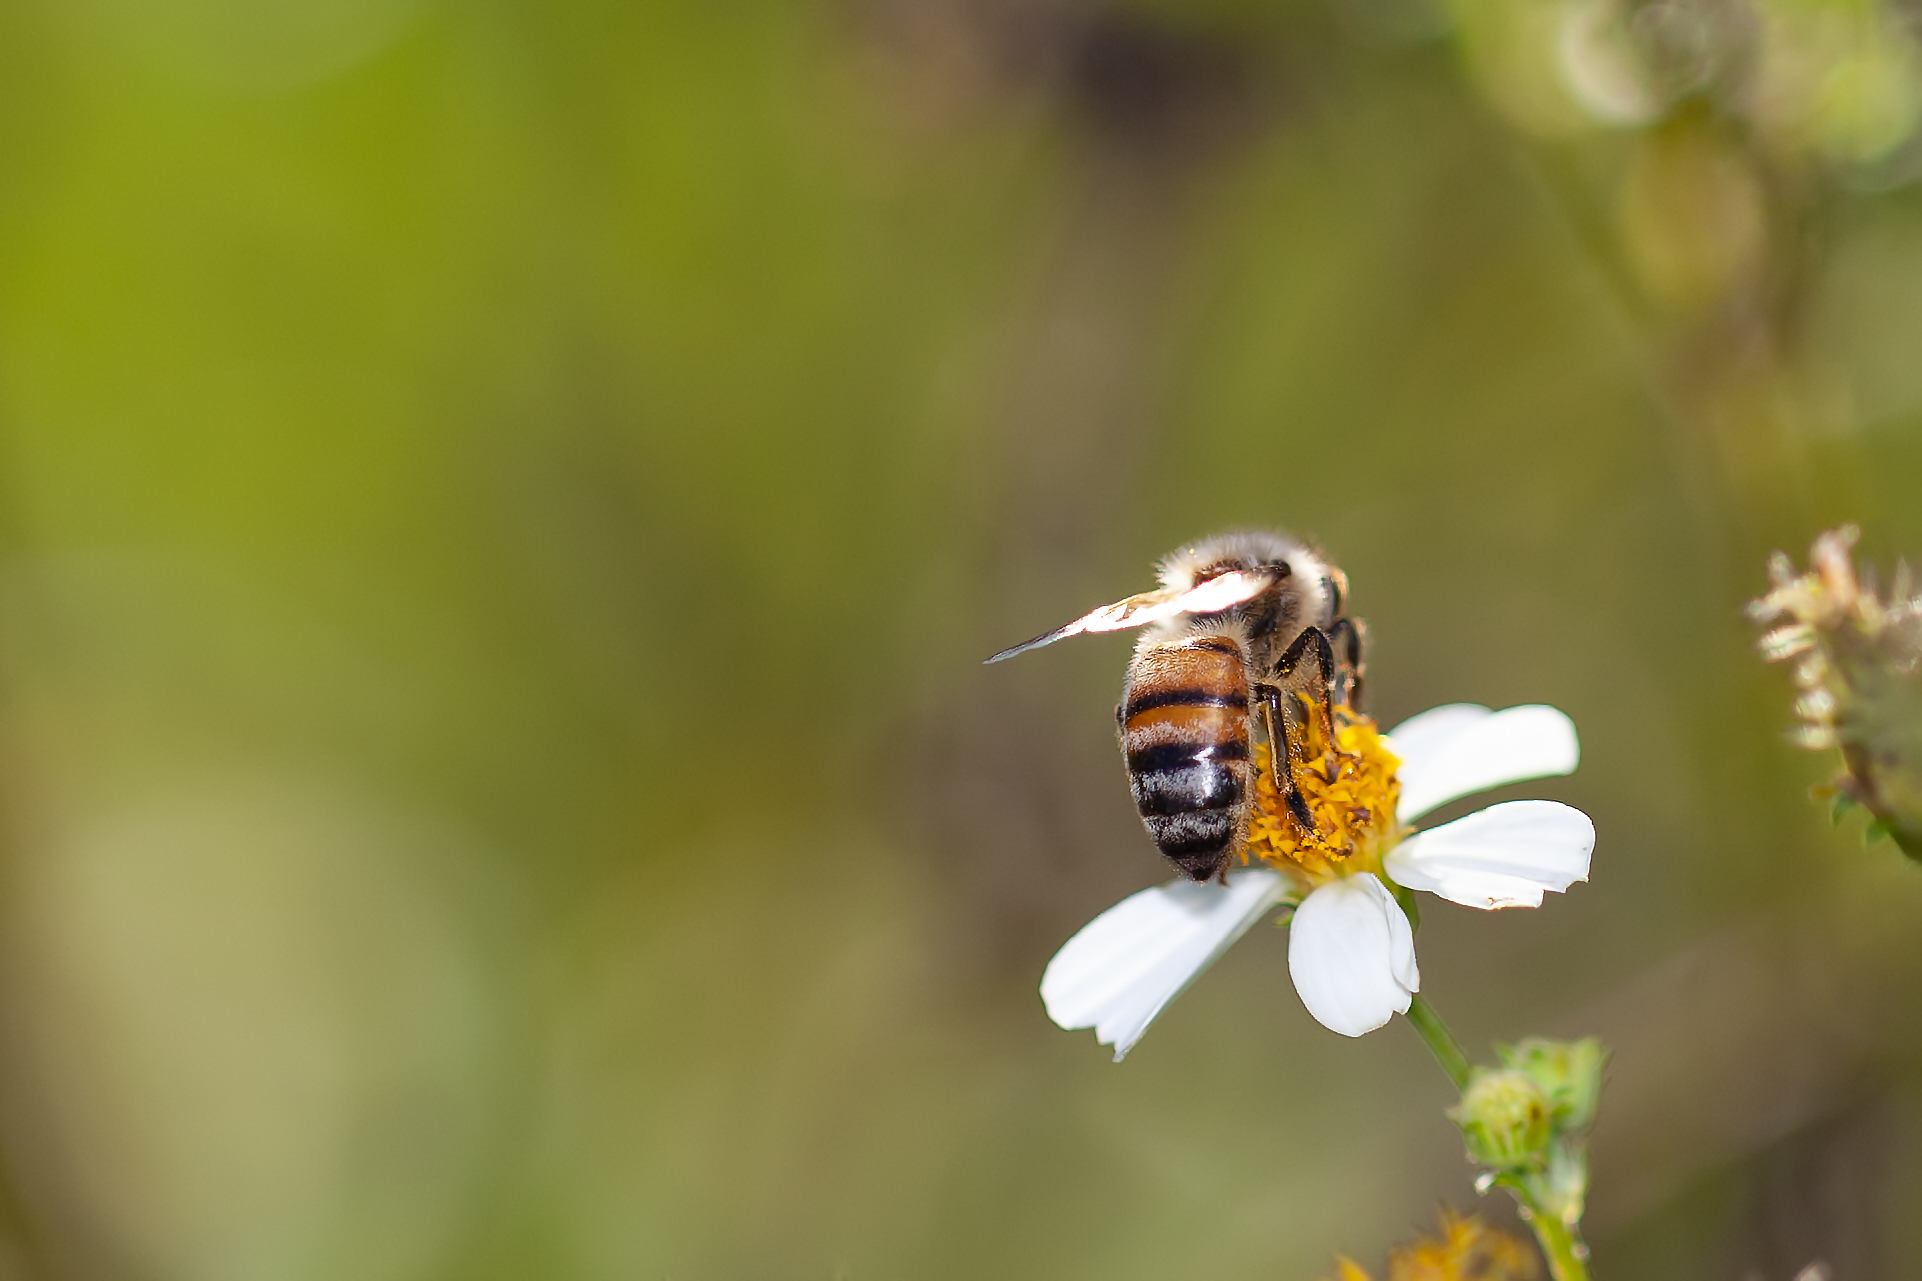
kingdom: Animalia
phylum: Arthropoda
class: Insecta
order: Hymenoptera
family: Apidae
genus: Apis
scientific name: Apis mellifera
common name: Honey bee
